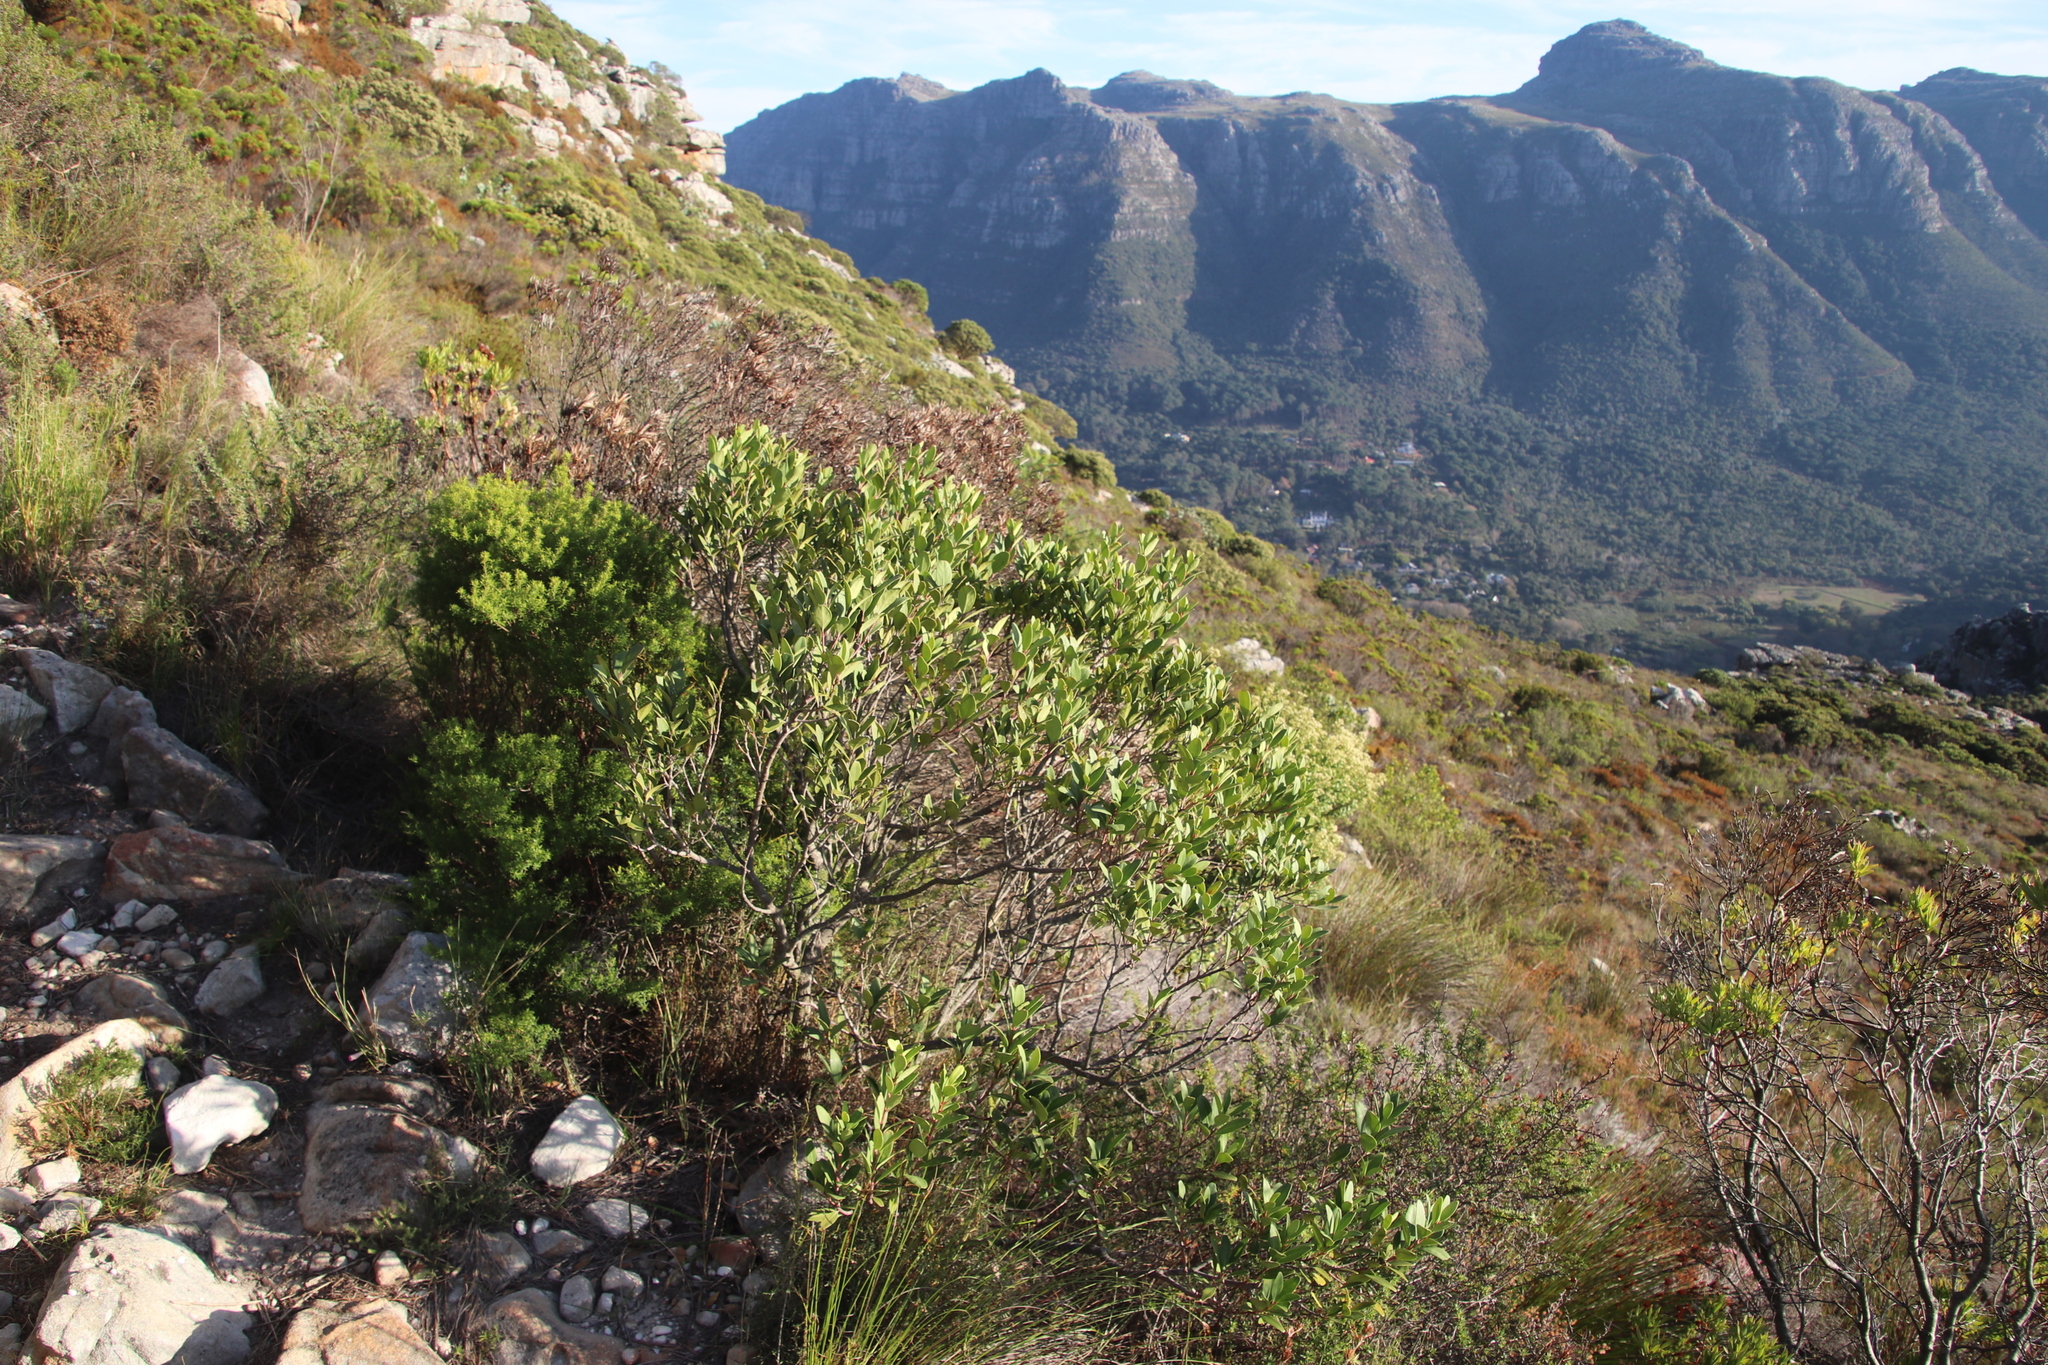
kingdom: Plantae
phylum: Tracheophyta
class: Magnoliopsida
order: Celastrales
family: Celastraceae
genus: Gymnosporia
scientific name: Gymnosporia laurina
